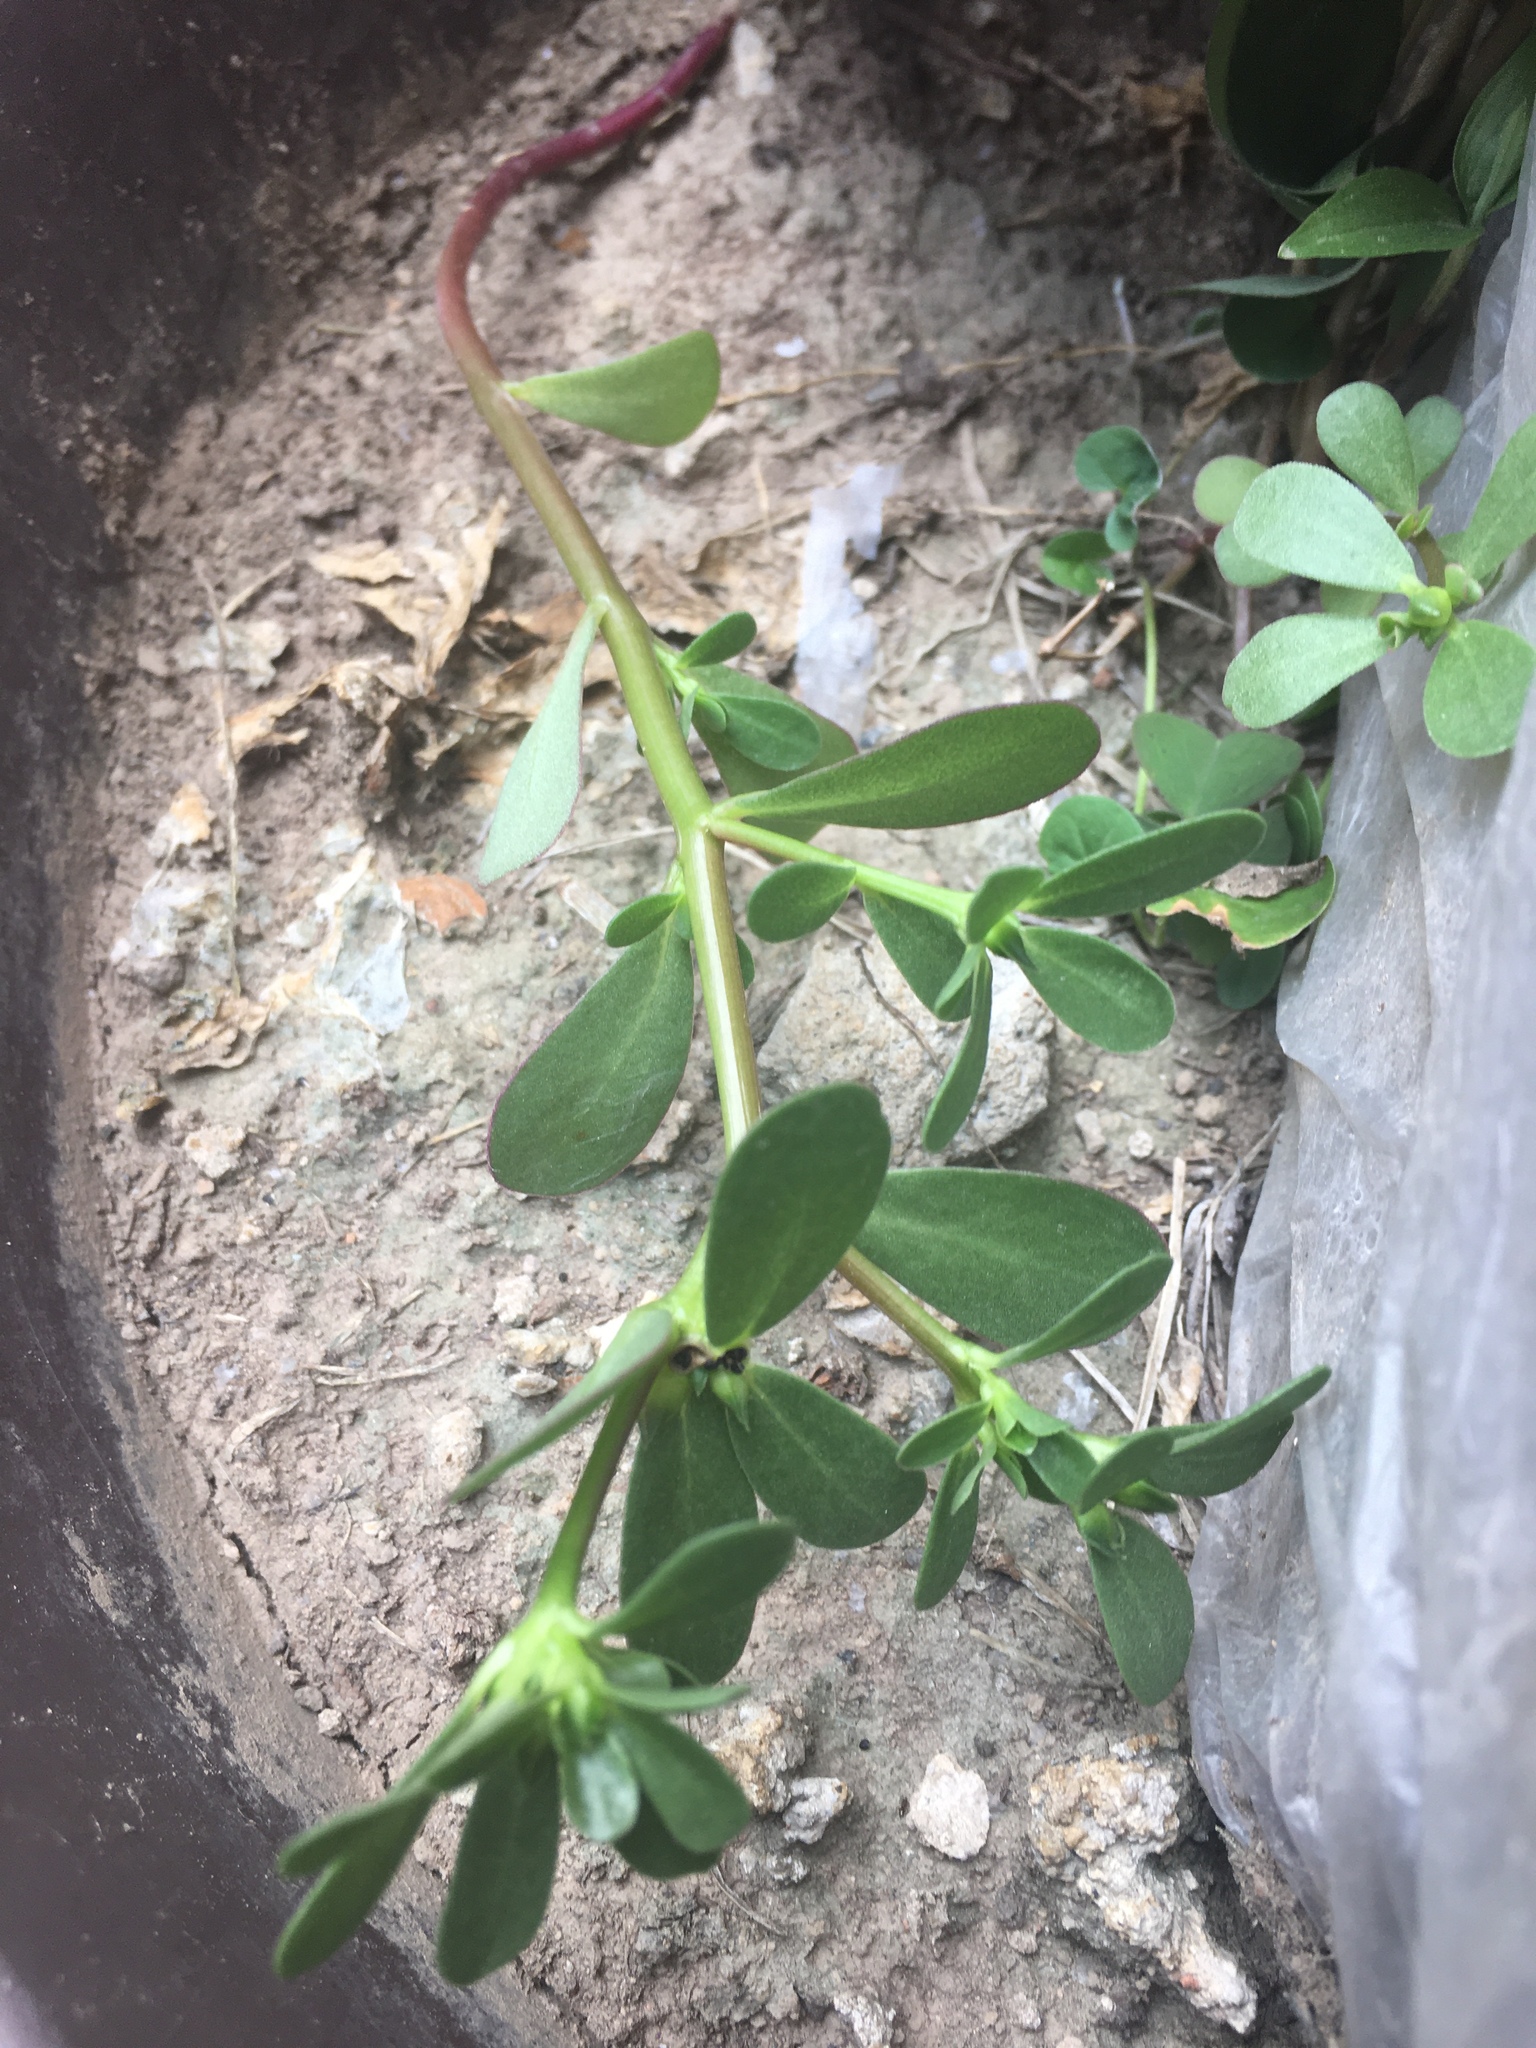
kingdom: Plantae
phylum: Tracheophyta
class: Magnoliopsida
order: Caryophyllales
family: Portulacaceae
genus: Portulaca
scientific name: Portulaca oleracea
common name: Common purslane
